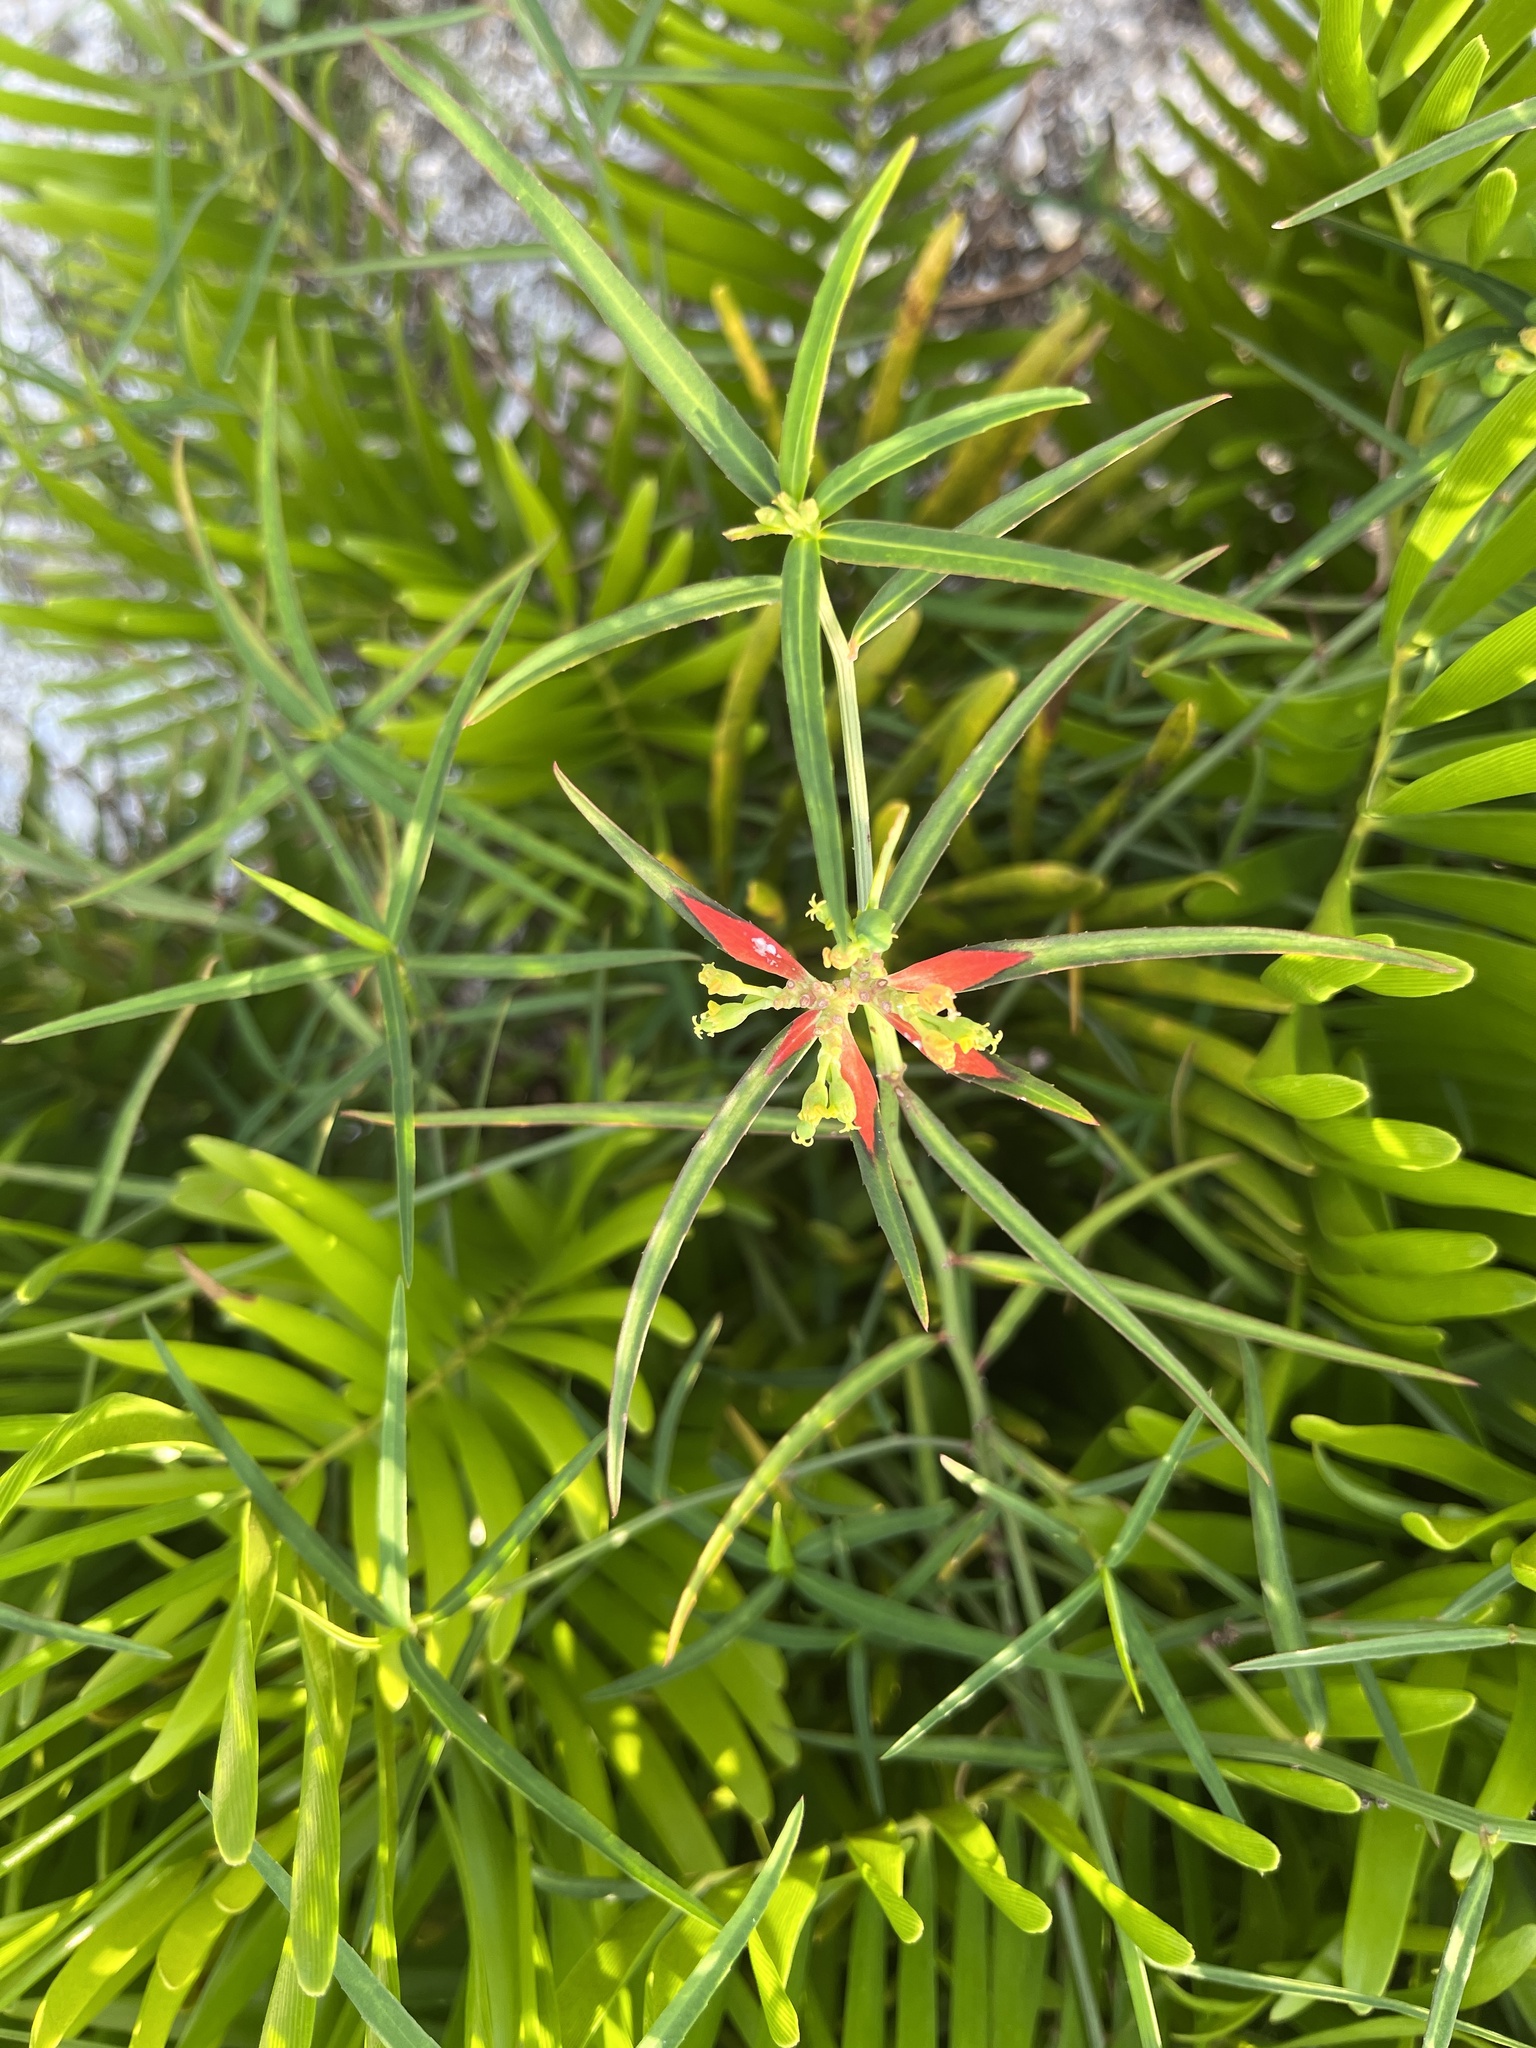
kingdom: Plantae
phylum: Tracheophyta
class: Magnoliopsida
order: Malpighiales
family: Euphorbiaceae
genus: Euphorbia
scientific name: Euphorbia heterophylla
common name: Mexican fireplant
